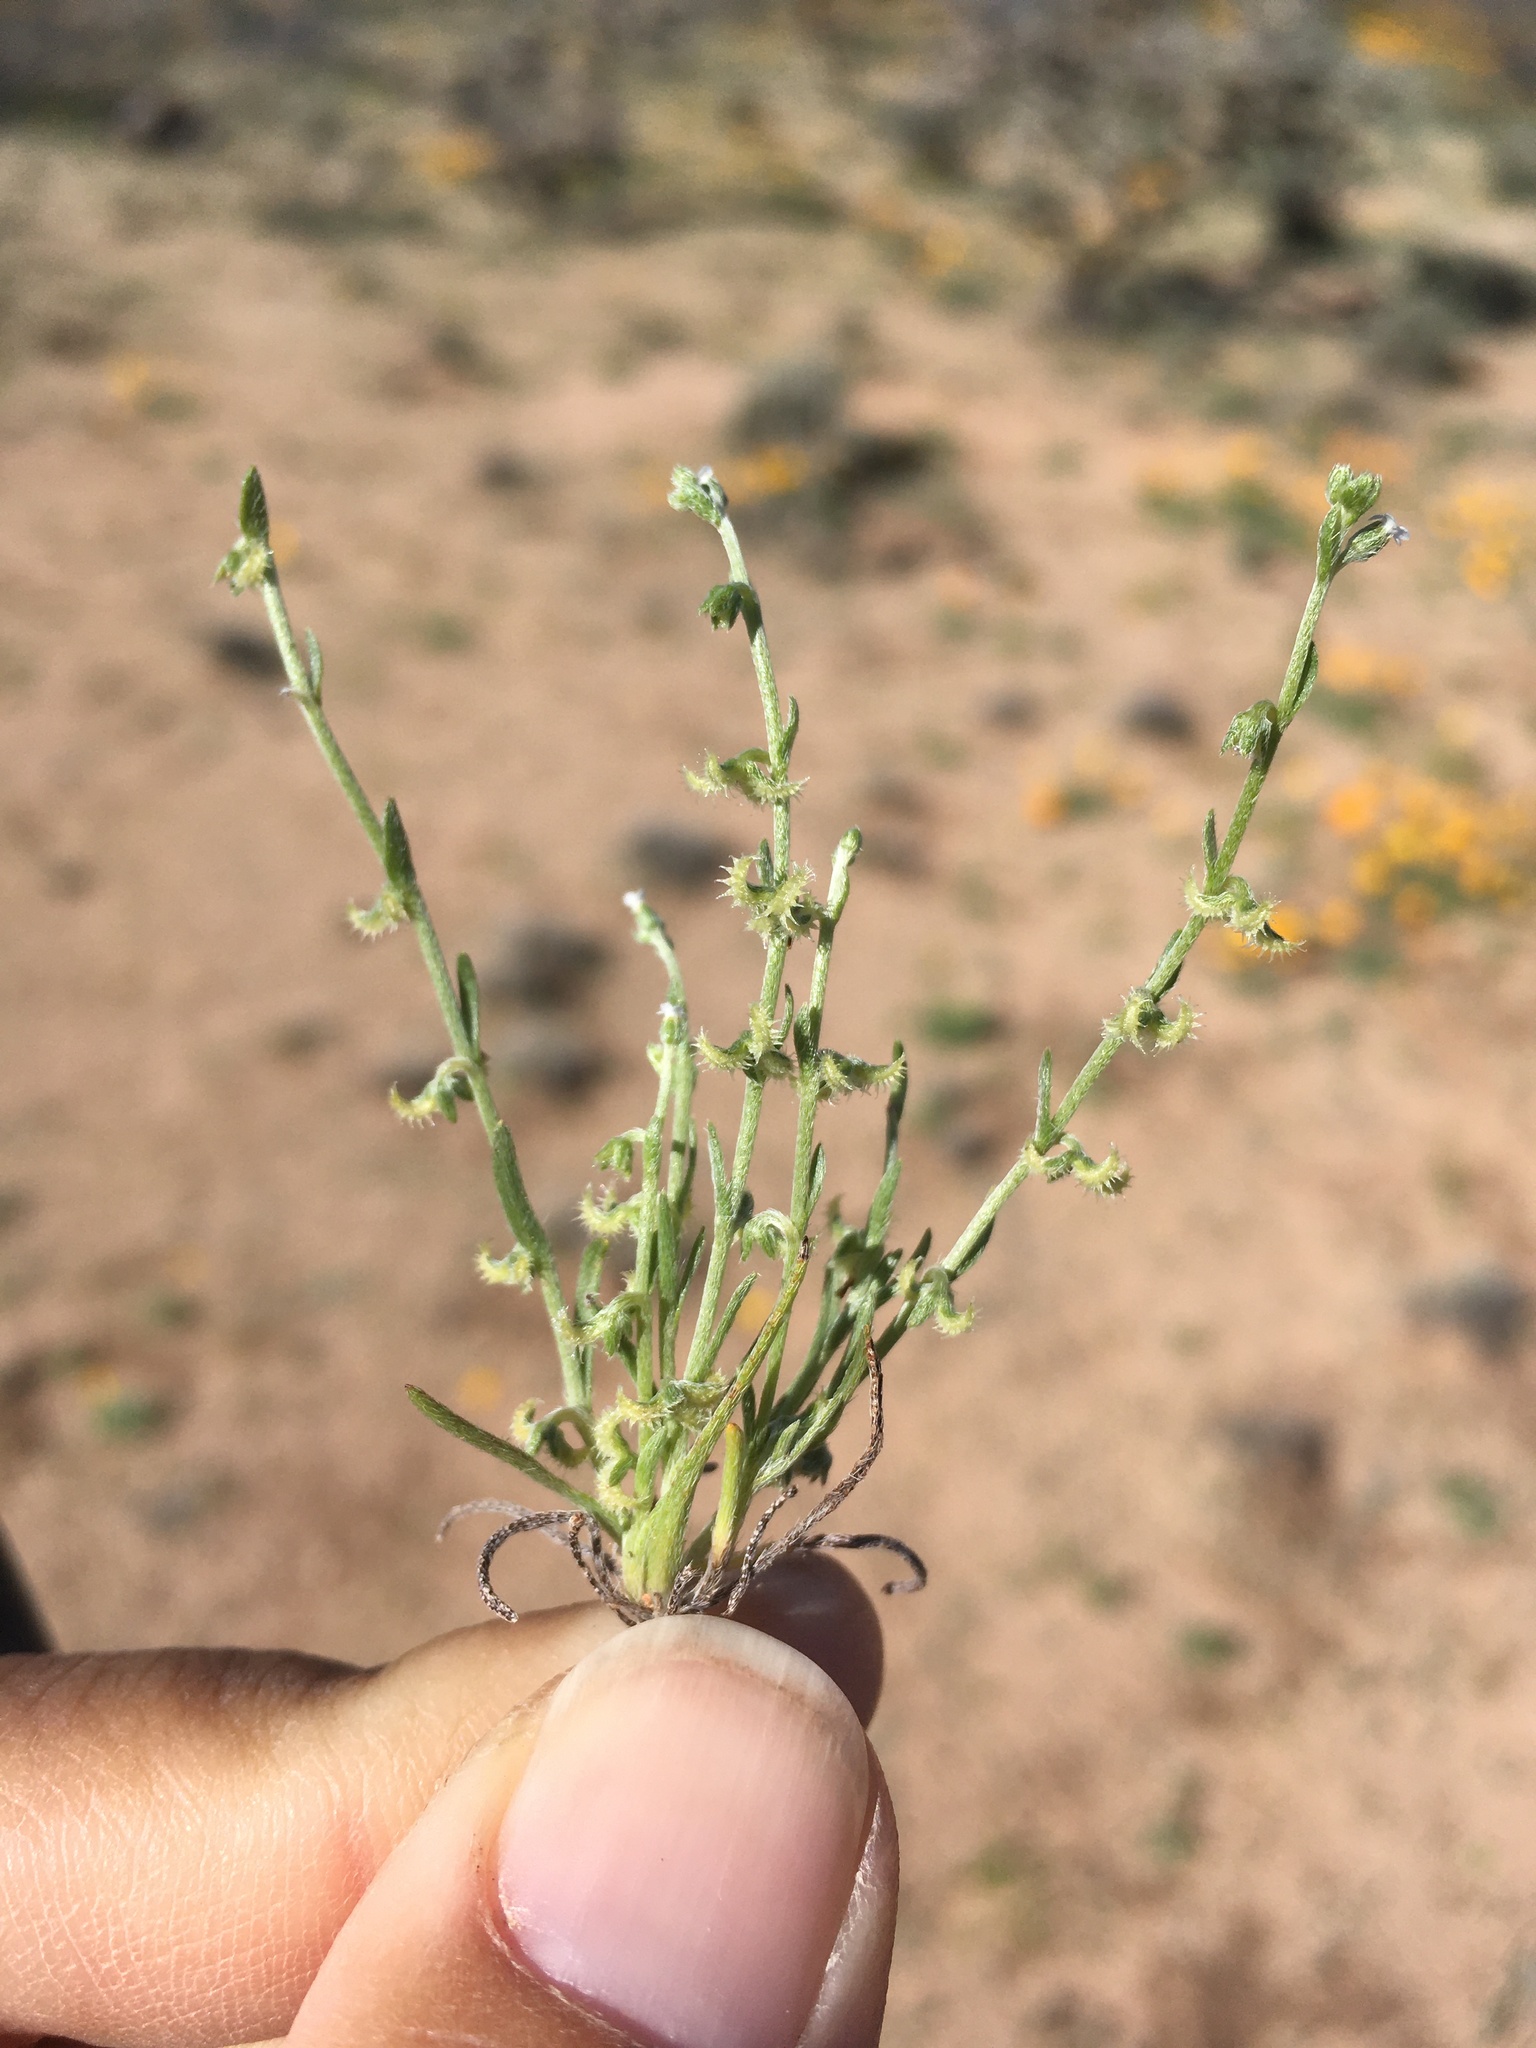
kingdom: Plantae
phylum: Tracheophyta
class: Magnoliopsida
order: Boraginales
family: Boraginaceae
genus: Pectocarya
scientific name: Pectocarya recurvata
